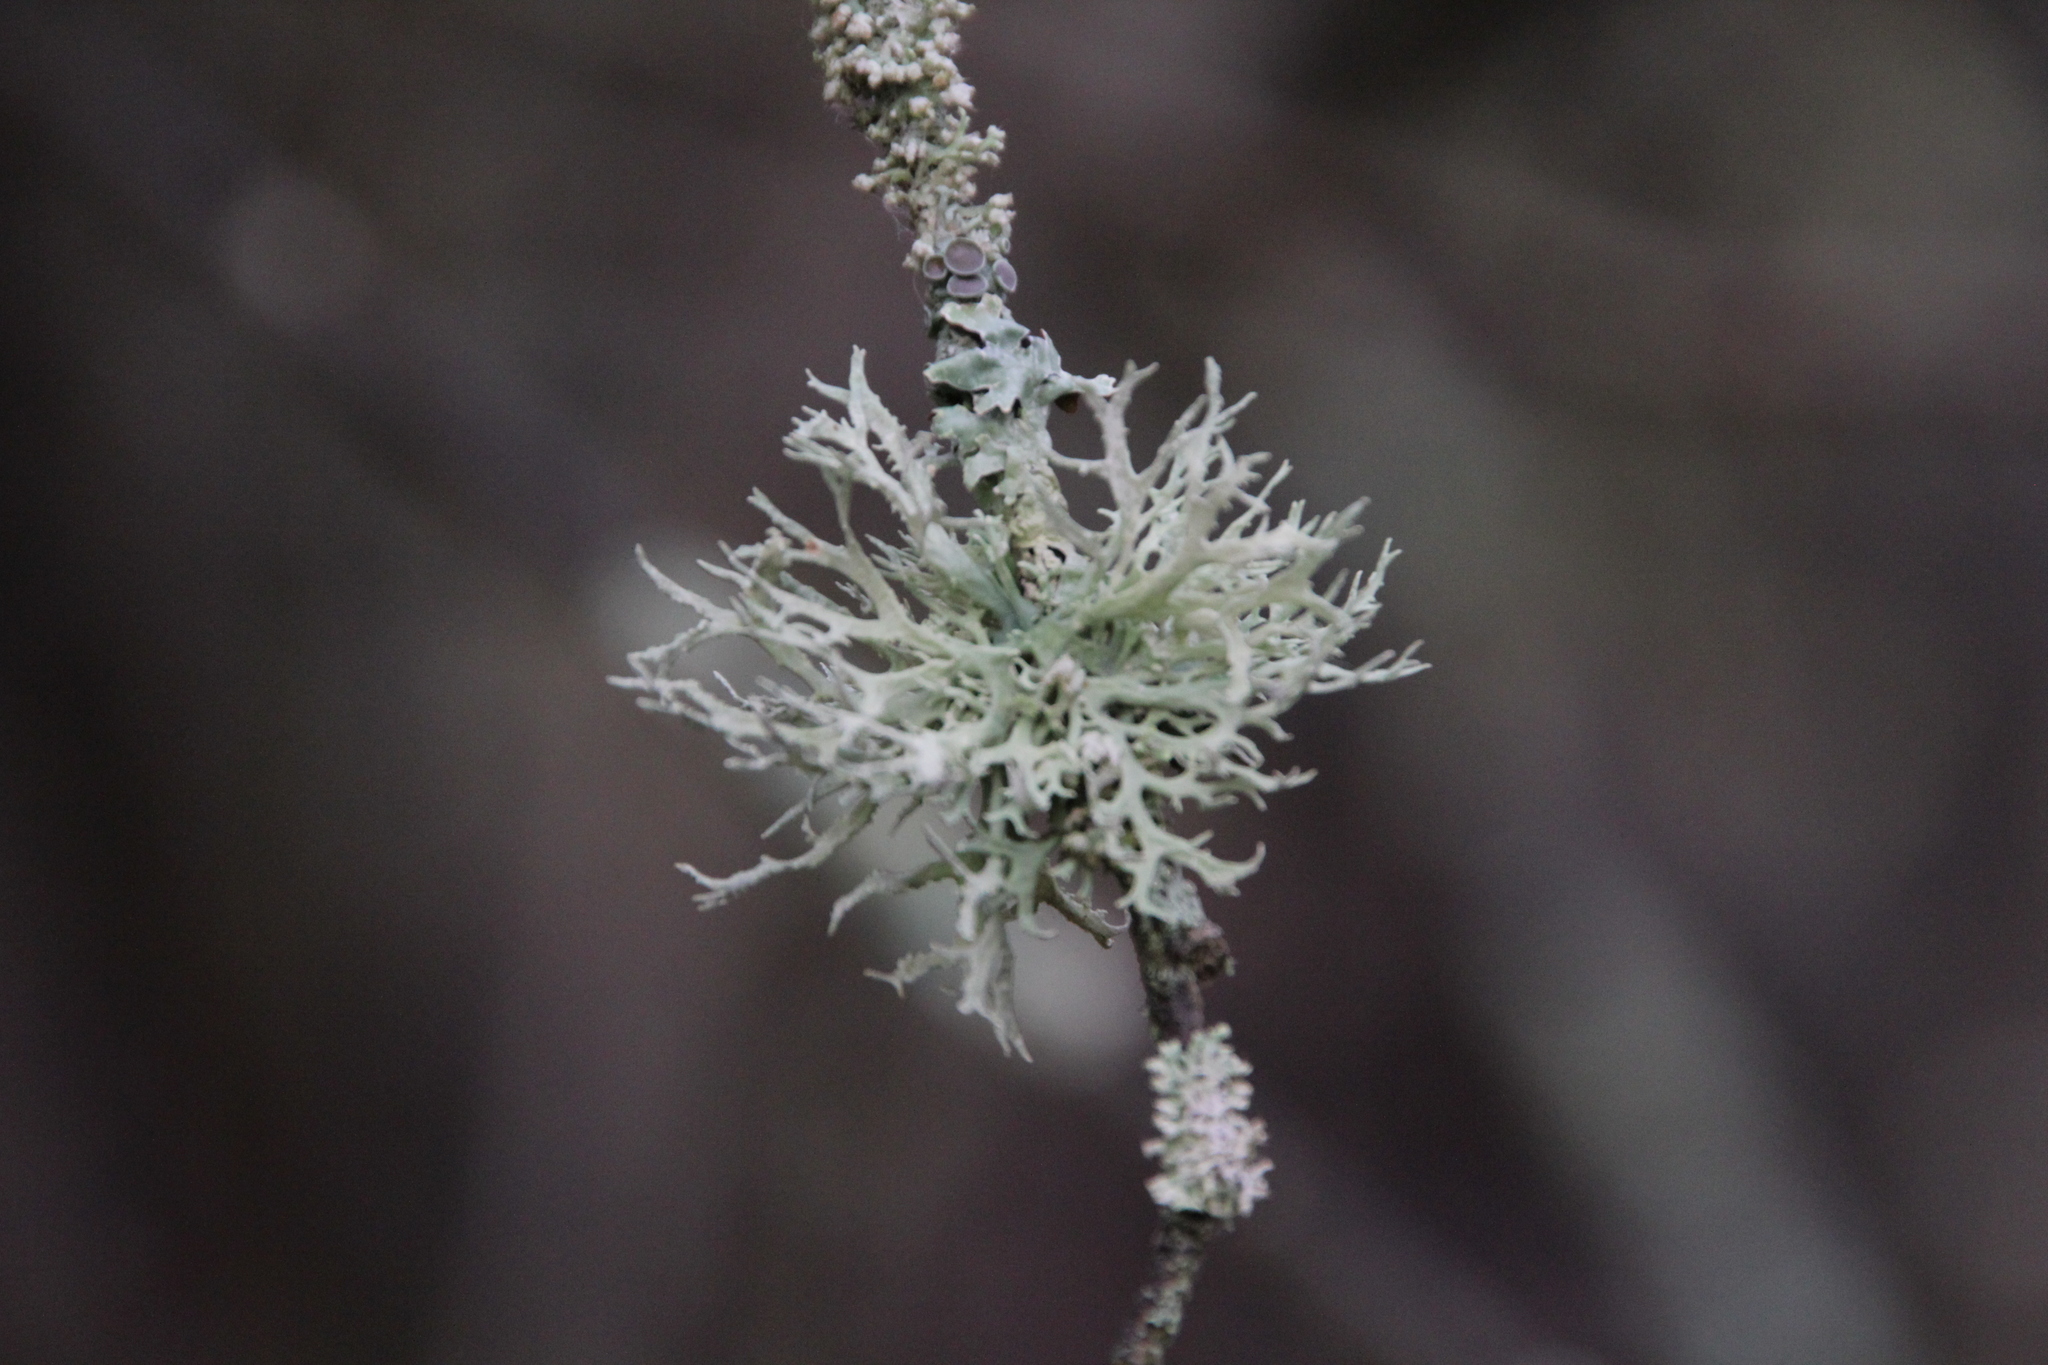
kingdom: Fungi
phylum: Ascomycota
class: Lecanoromycetes
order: Lecanorales
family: Parmeliaceae
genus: Evernia
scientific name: Evernia prunastri
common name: Oak moss
